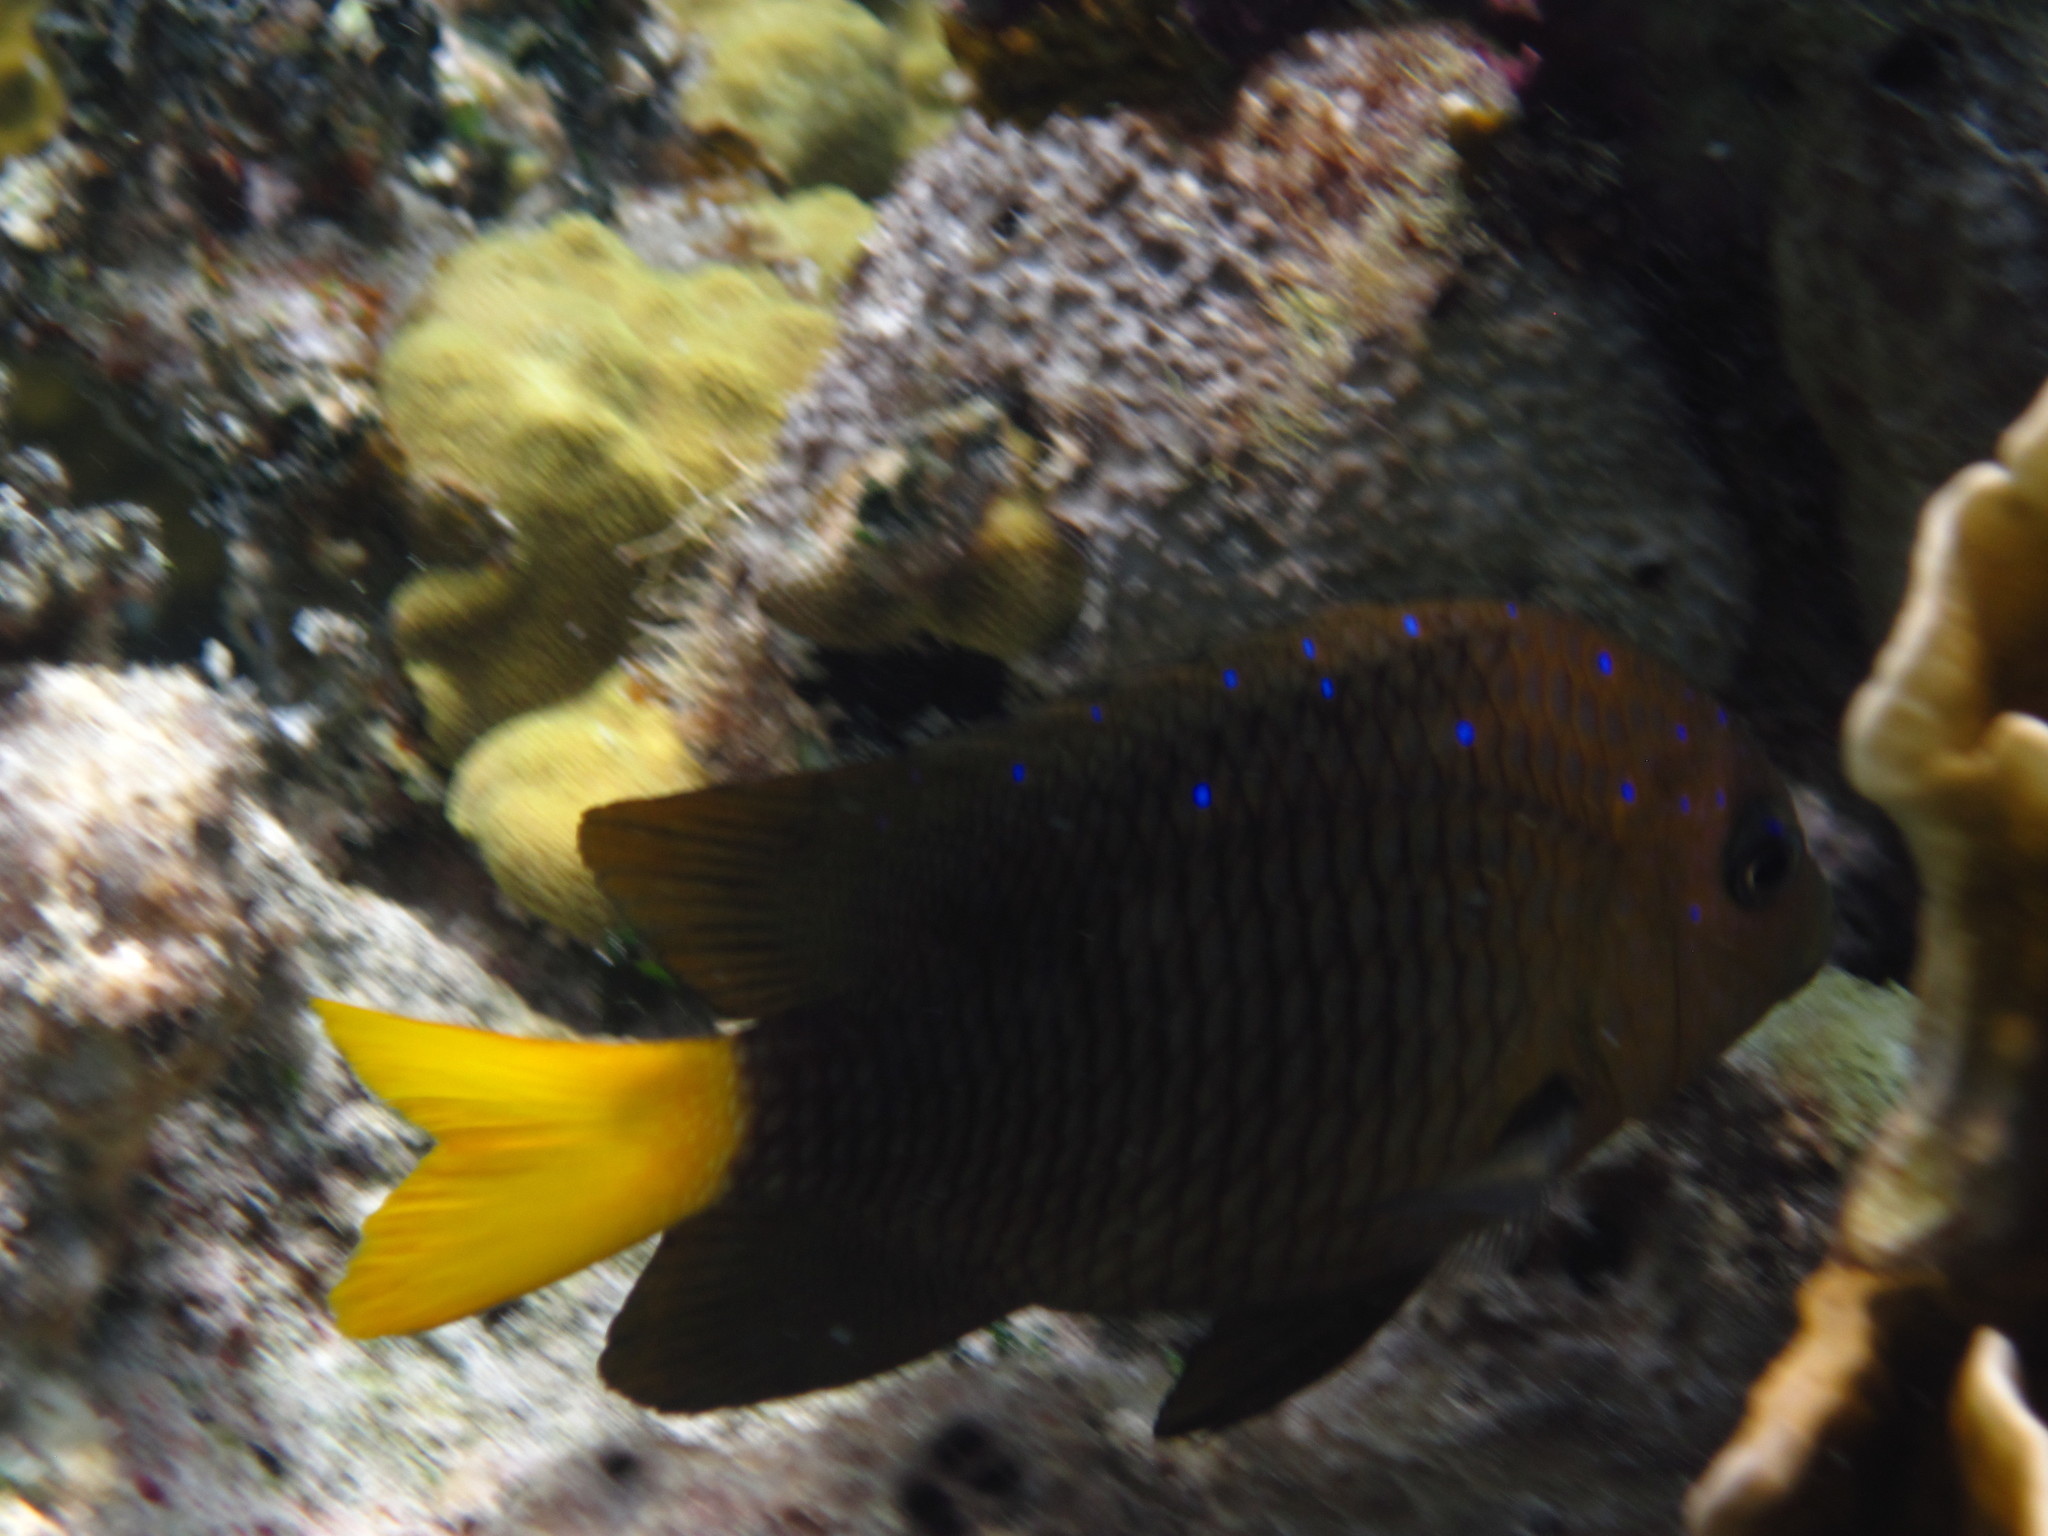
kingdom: Animalia
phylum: Chordata
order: Perciformes
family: Pomacentridae
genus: Microspathodon
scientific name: Microspathodon chrysurus
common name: Yellowtail damselfish
